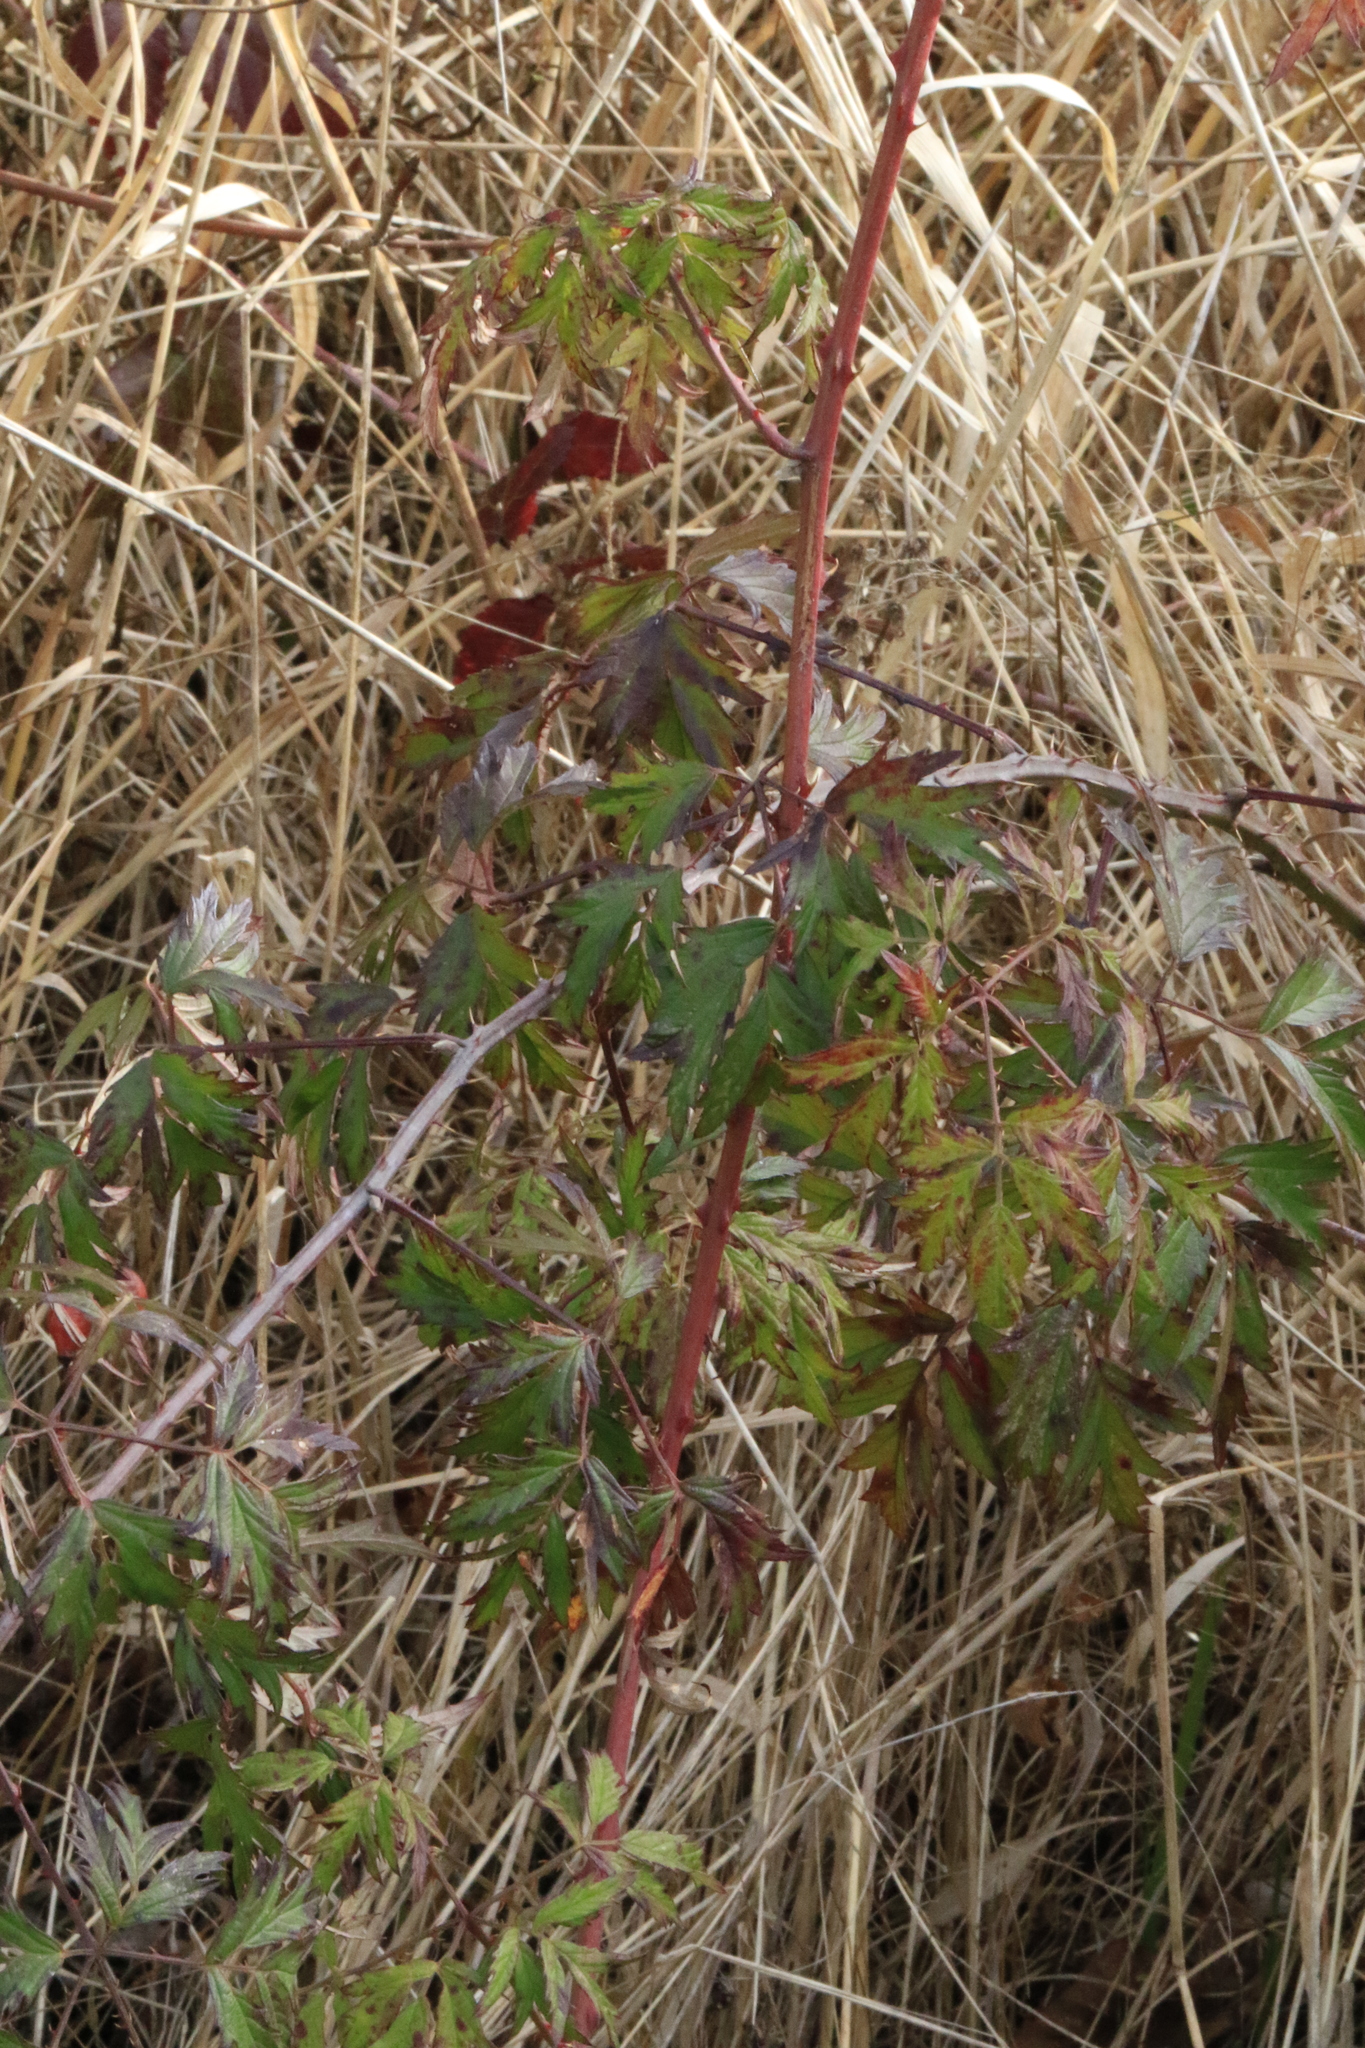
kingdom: Plantae
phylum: Tracheophyta
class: Magnoliopsida
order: Rosales
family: Rosaceae
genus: Rubus
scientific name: Rubus laciniatus
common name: Evergreen blackberry
